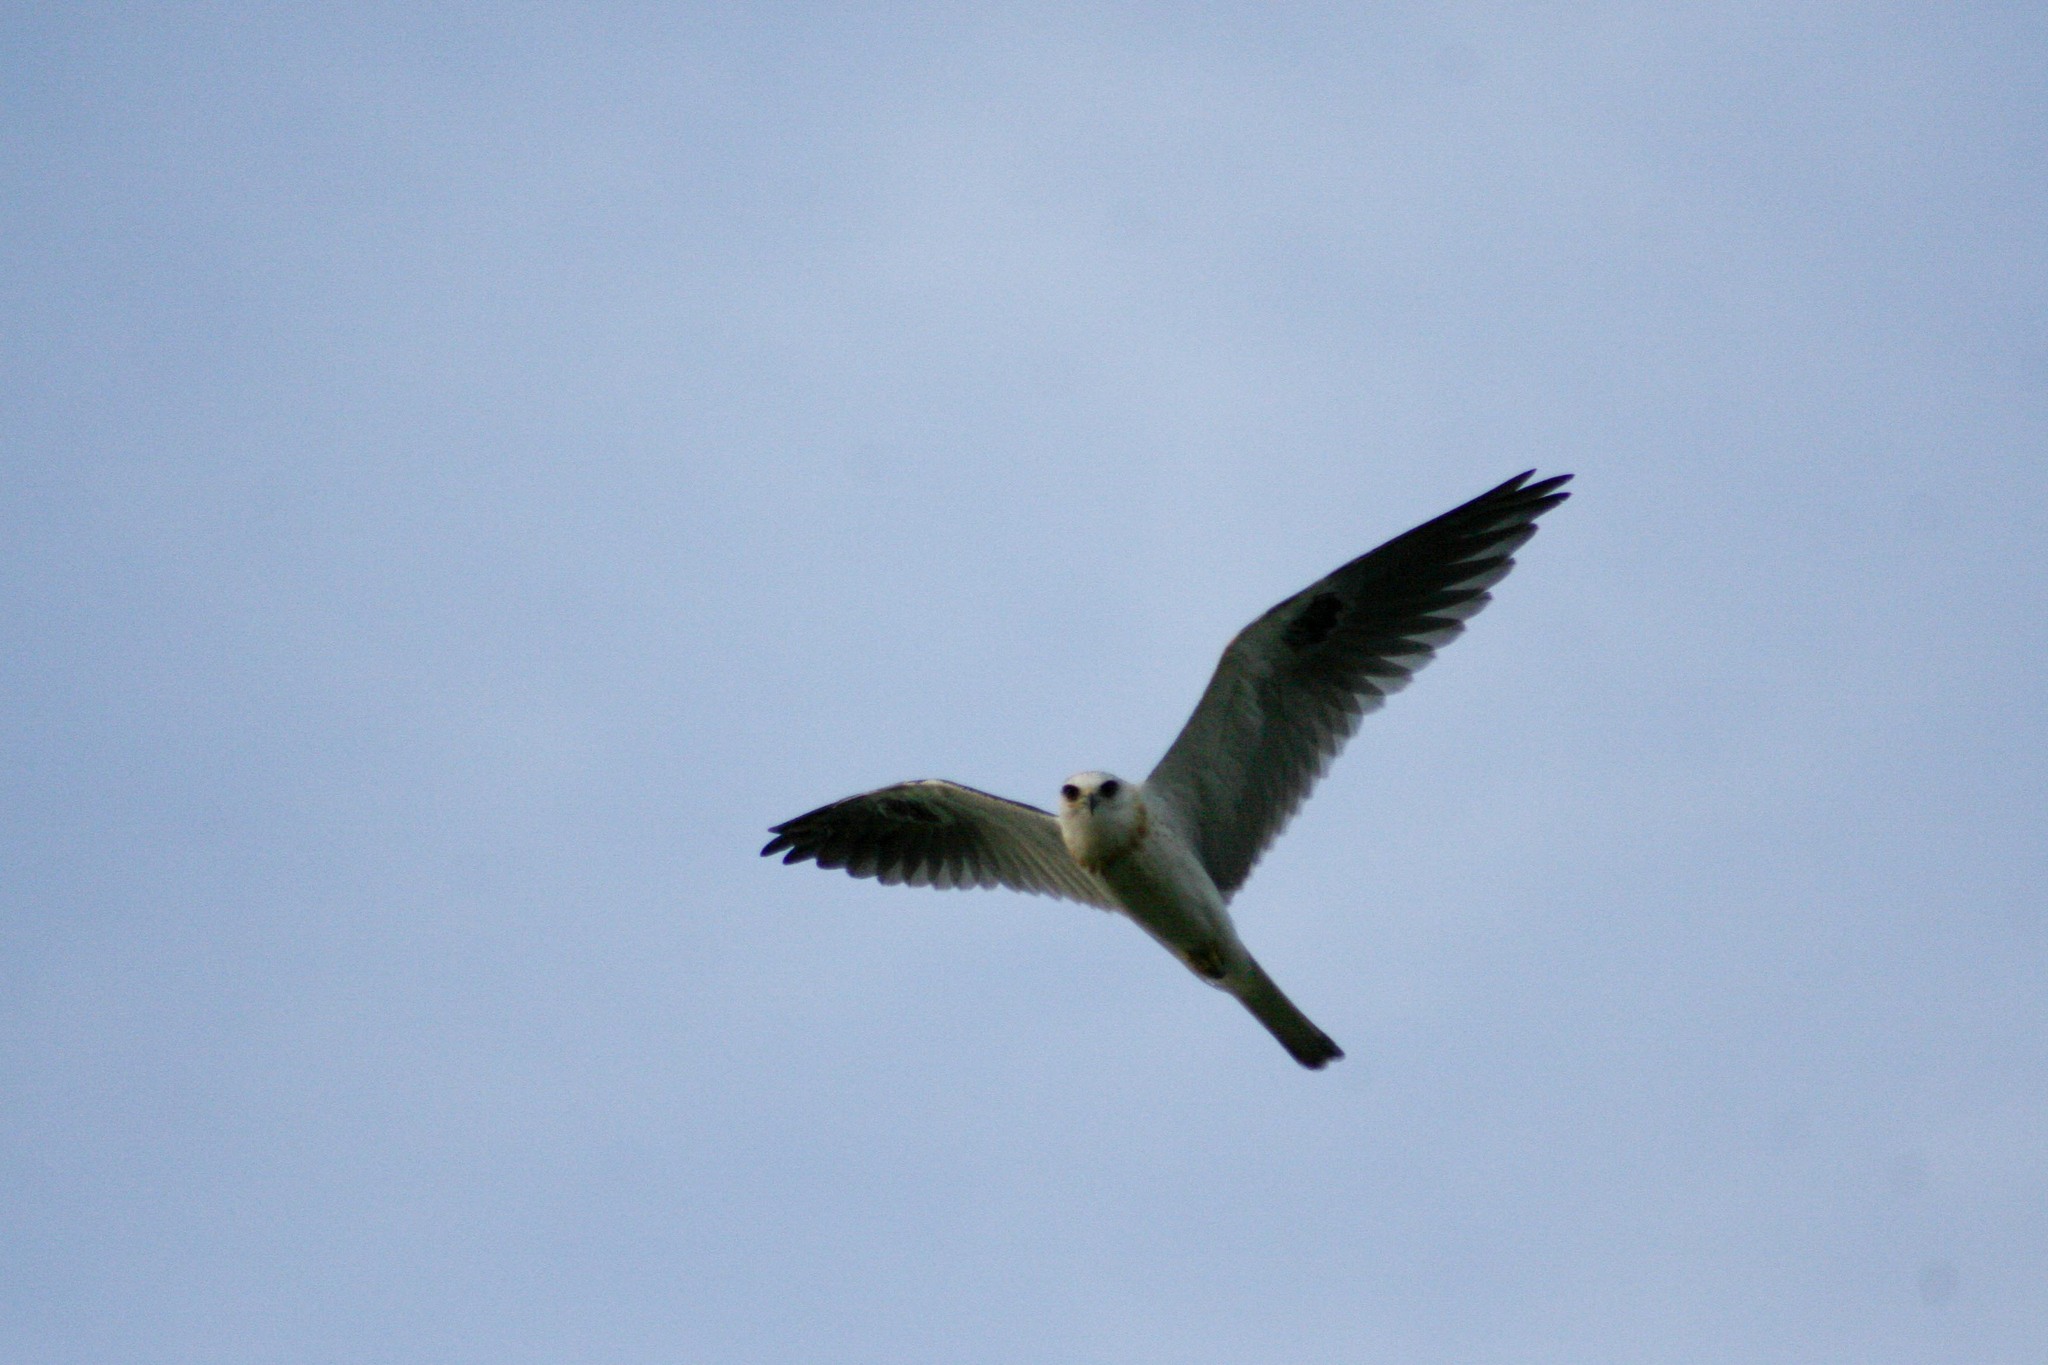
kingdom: Animalia
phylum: Chordata
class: Aves
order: Accipitriformes
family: Accipitridae
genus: Elanus
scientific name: Elanus leucurus
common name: White-tailed kite
